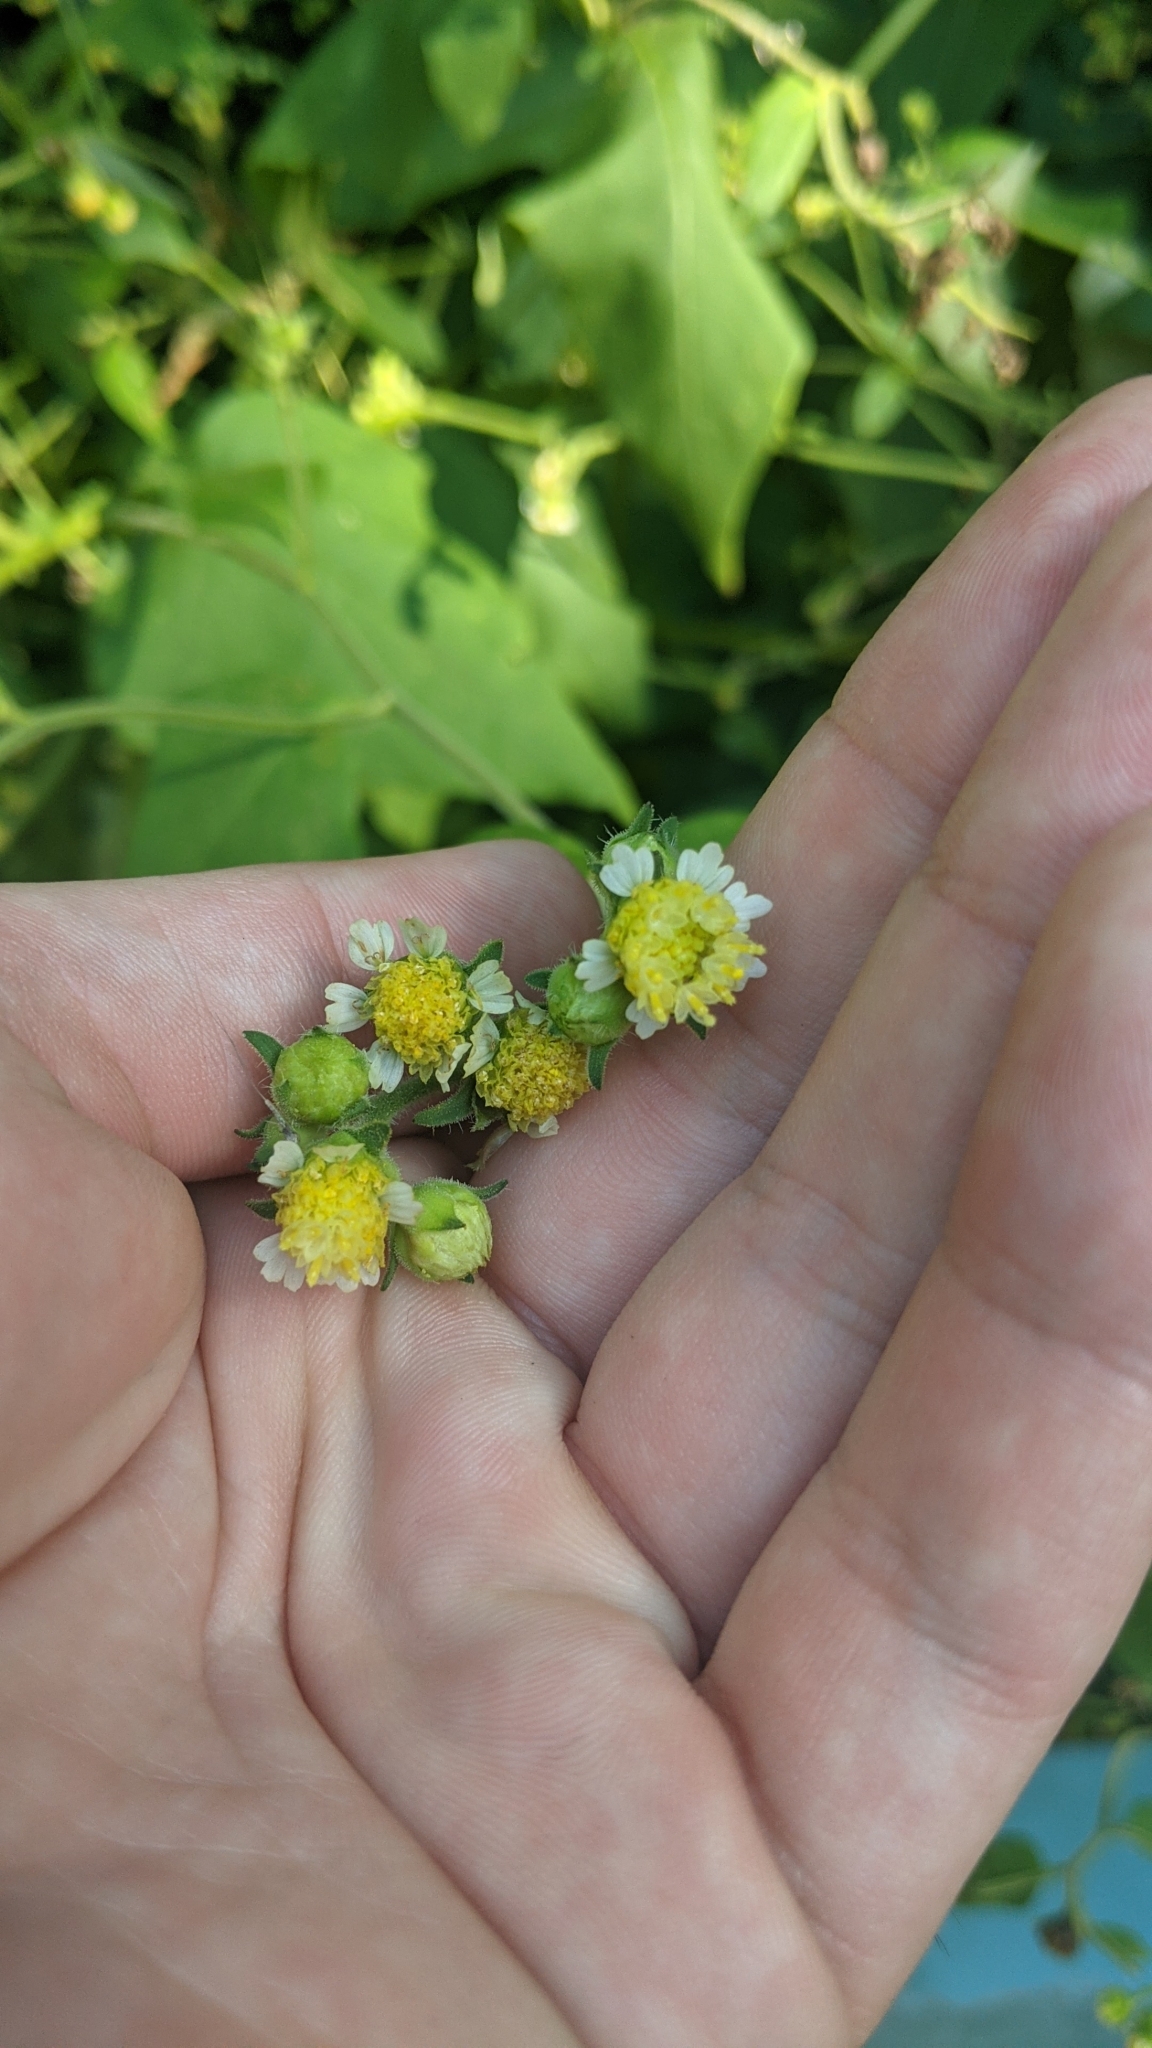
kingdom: Plantae
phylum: Tracheophyta
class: Magnoliopsida
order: Asterales
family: Asteraceae
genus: Polymnia
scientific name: Polymnia canadensis
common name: Pale-flowered leafcup
